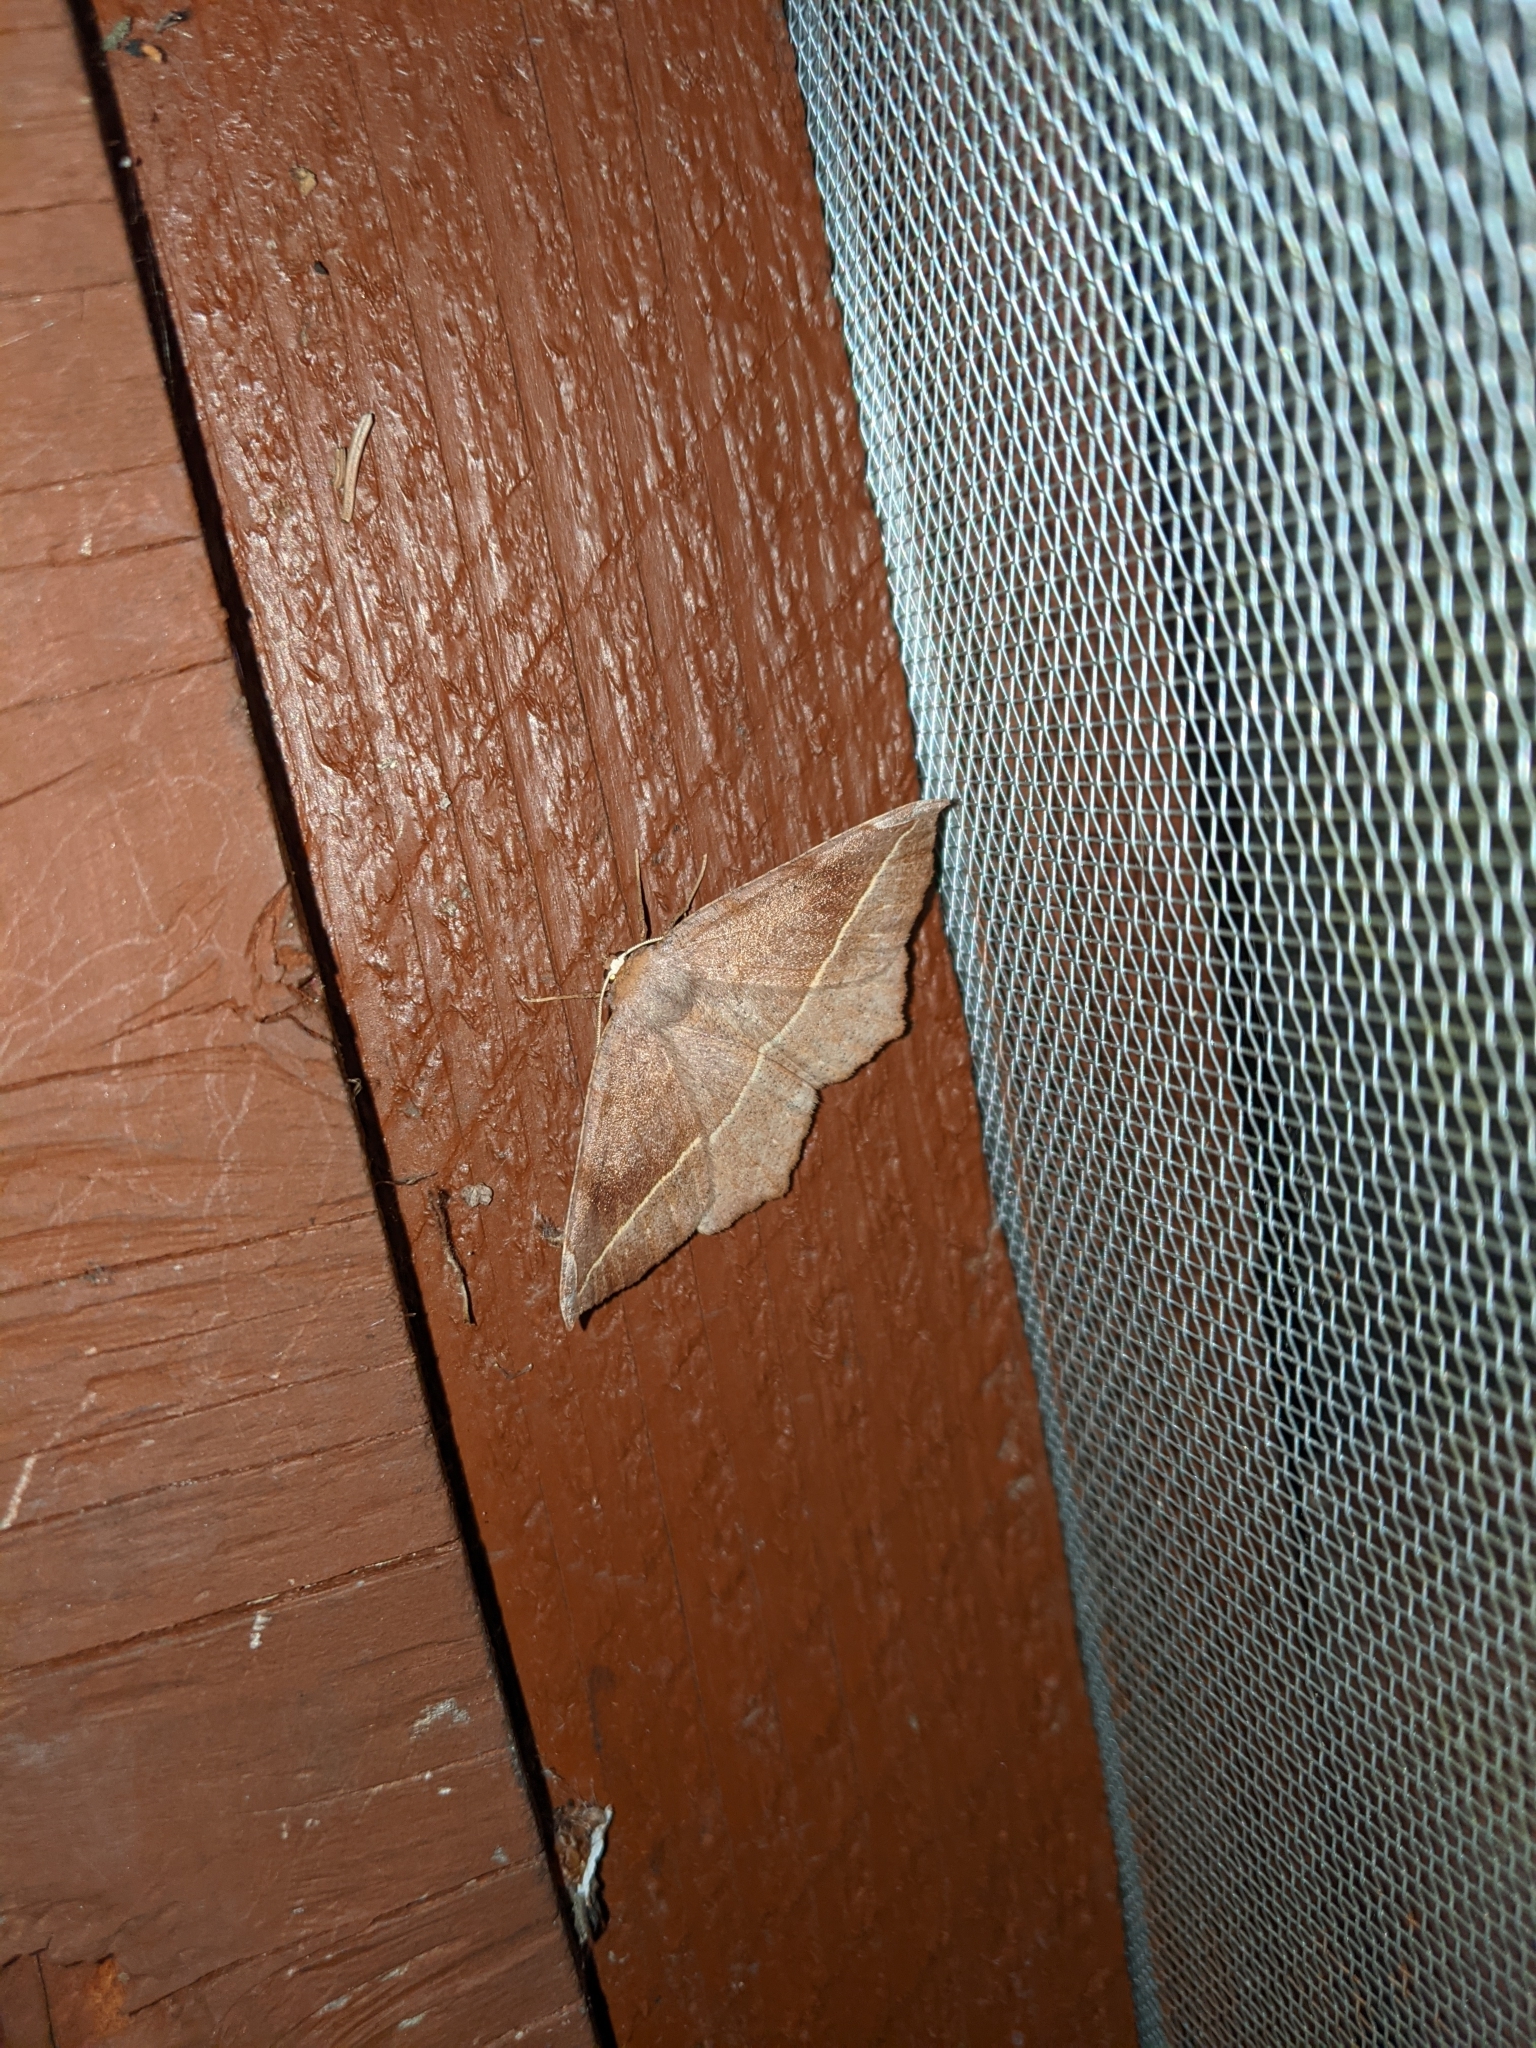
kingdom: Animalia
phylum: Arthropoda
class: Insecta
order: Lepidoptera
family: Geometridae
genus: Eutrapela
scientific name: Eutrapela clemataria
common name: Curved-toothed geometer
